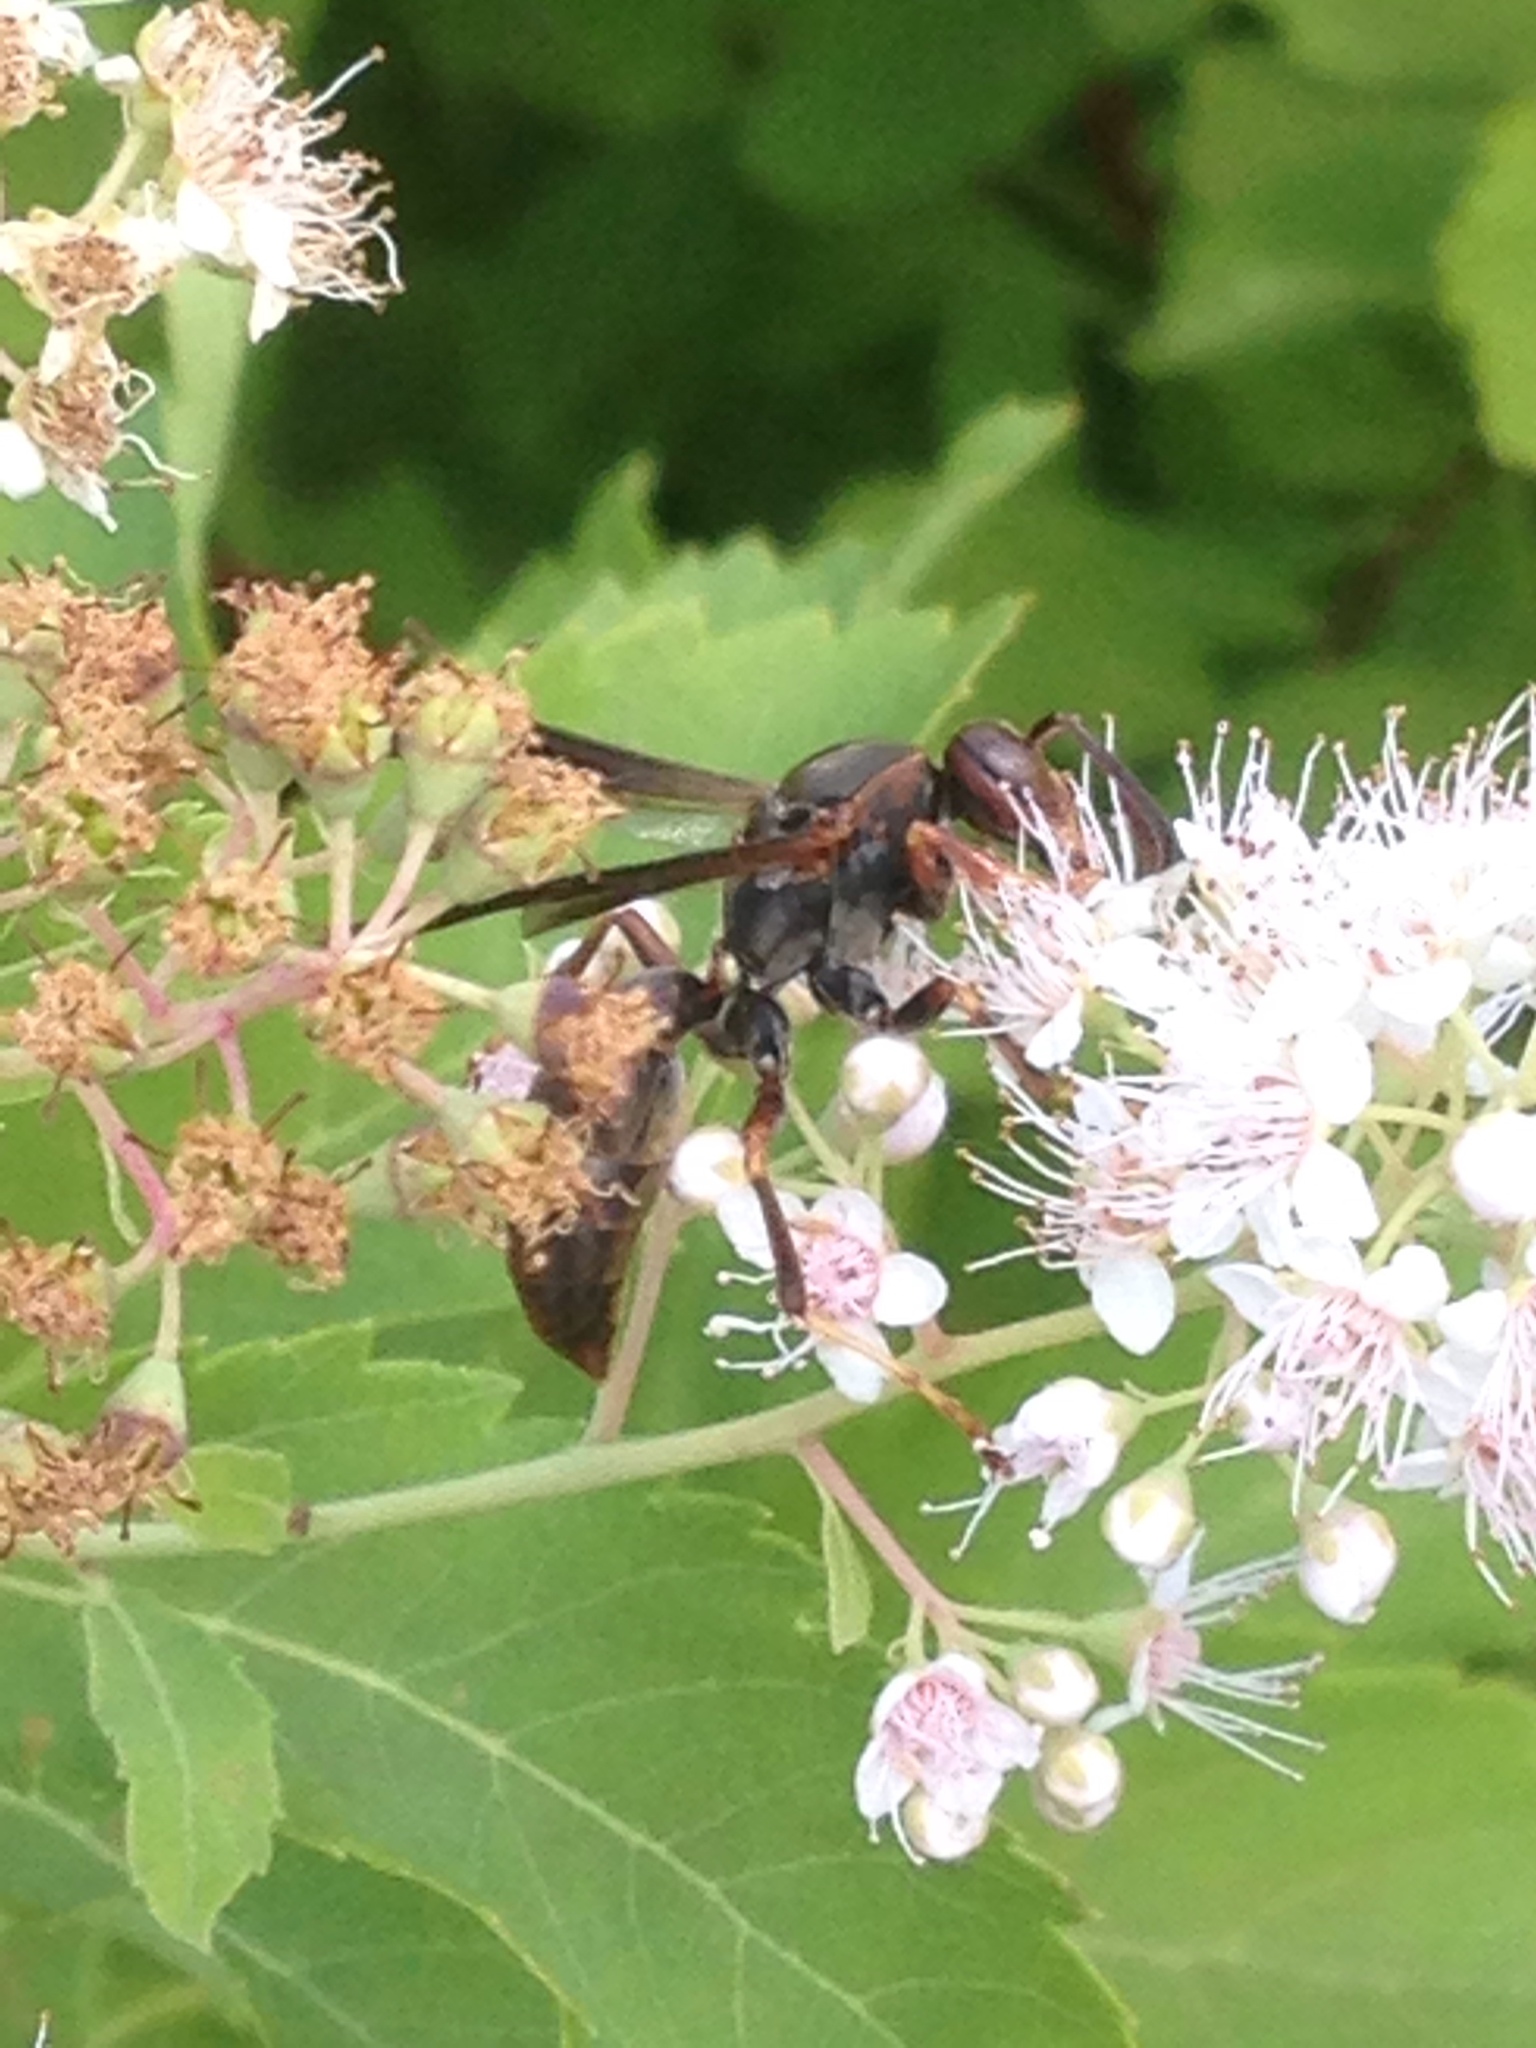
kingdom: Animalia
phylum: Arthropoda
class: Insecta
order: Hymenoptera
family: Eumenidae
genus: Polistes
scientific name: Polistes fuscatus
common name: Dark paper wasp
